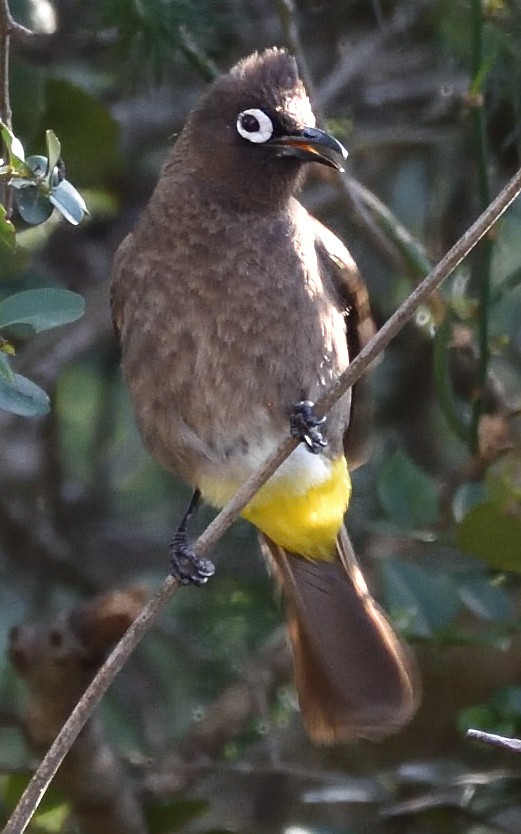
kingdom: Animalia
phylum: Chordata
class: Aves
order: Passeriformes
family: Pycnonotidae
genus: Pycnonotus
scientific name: Pycnonotus capensis
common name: Cape bulbul
